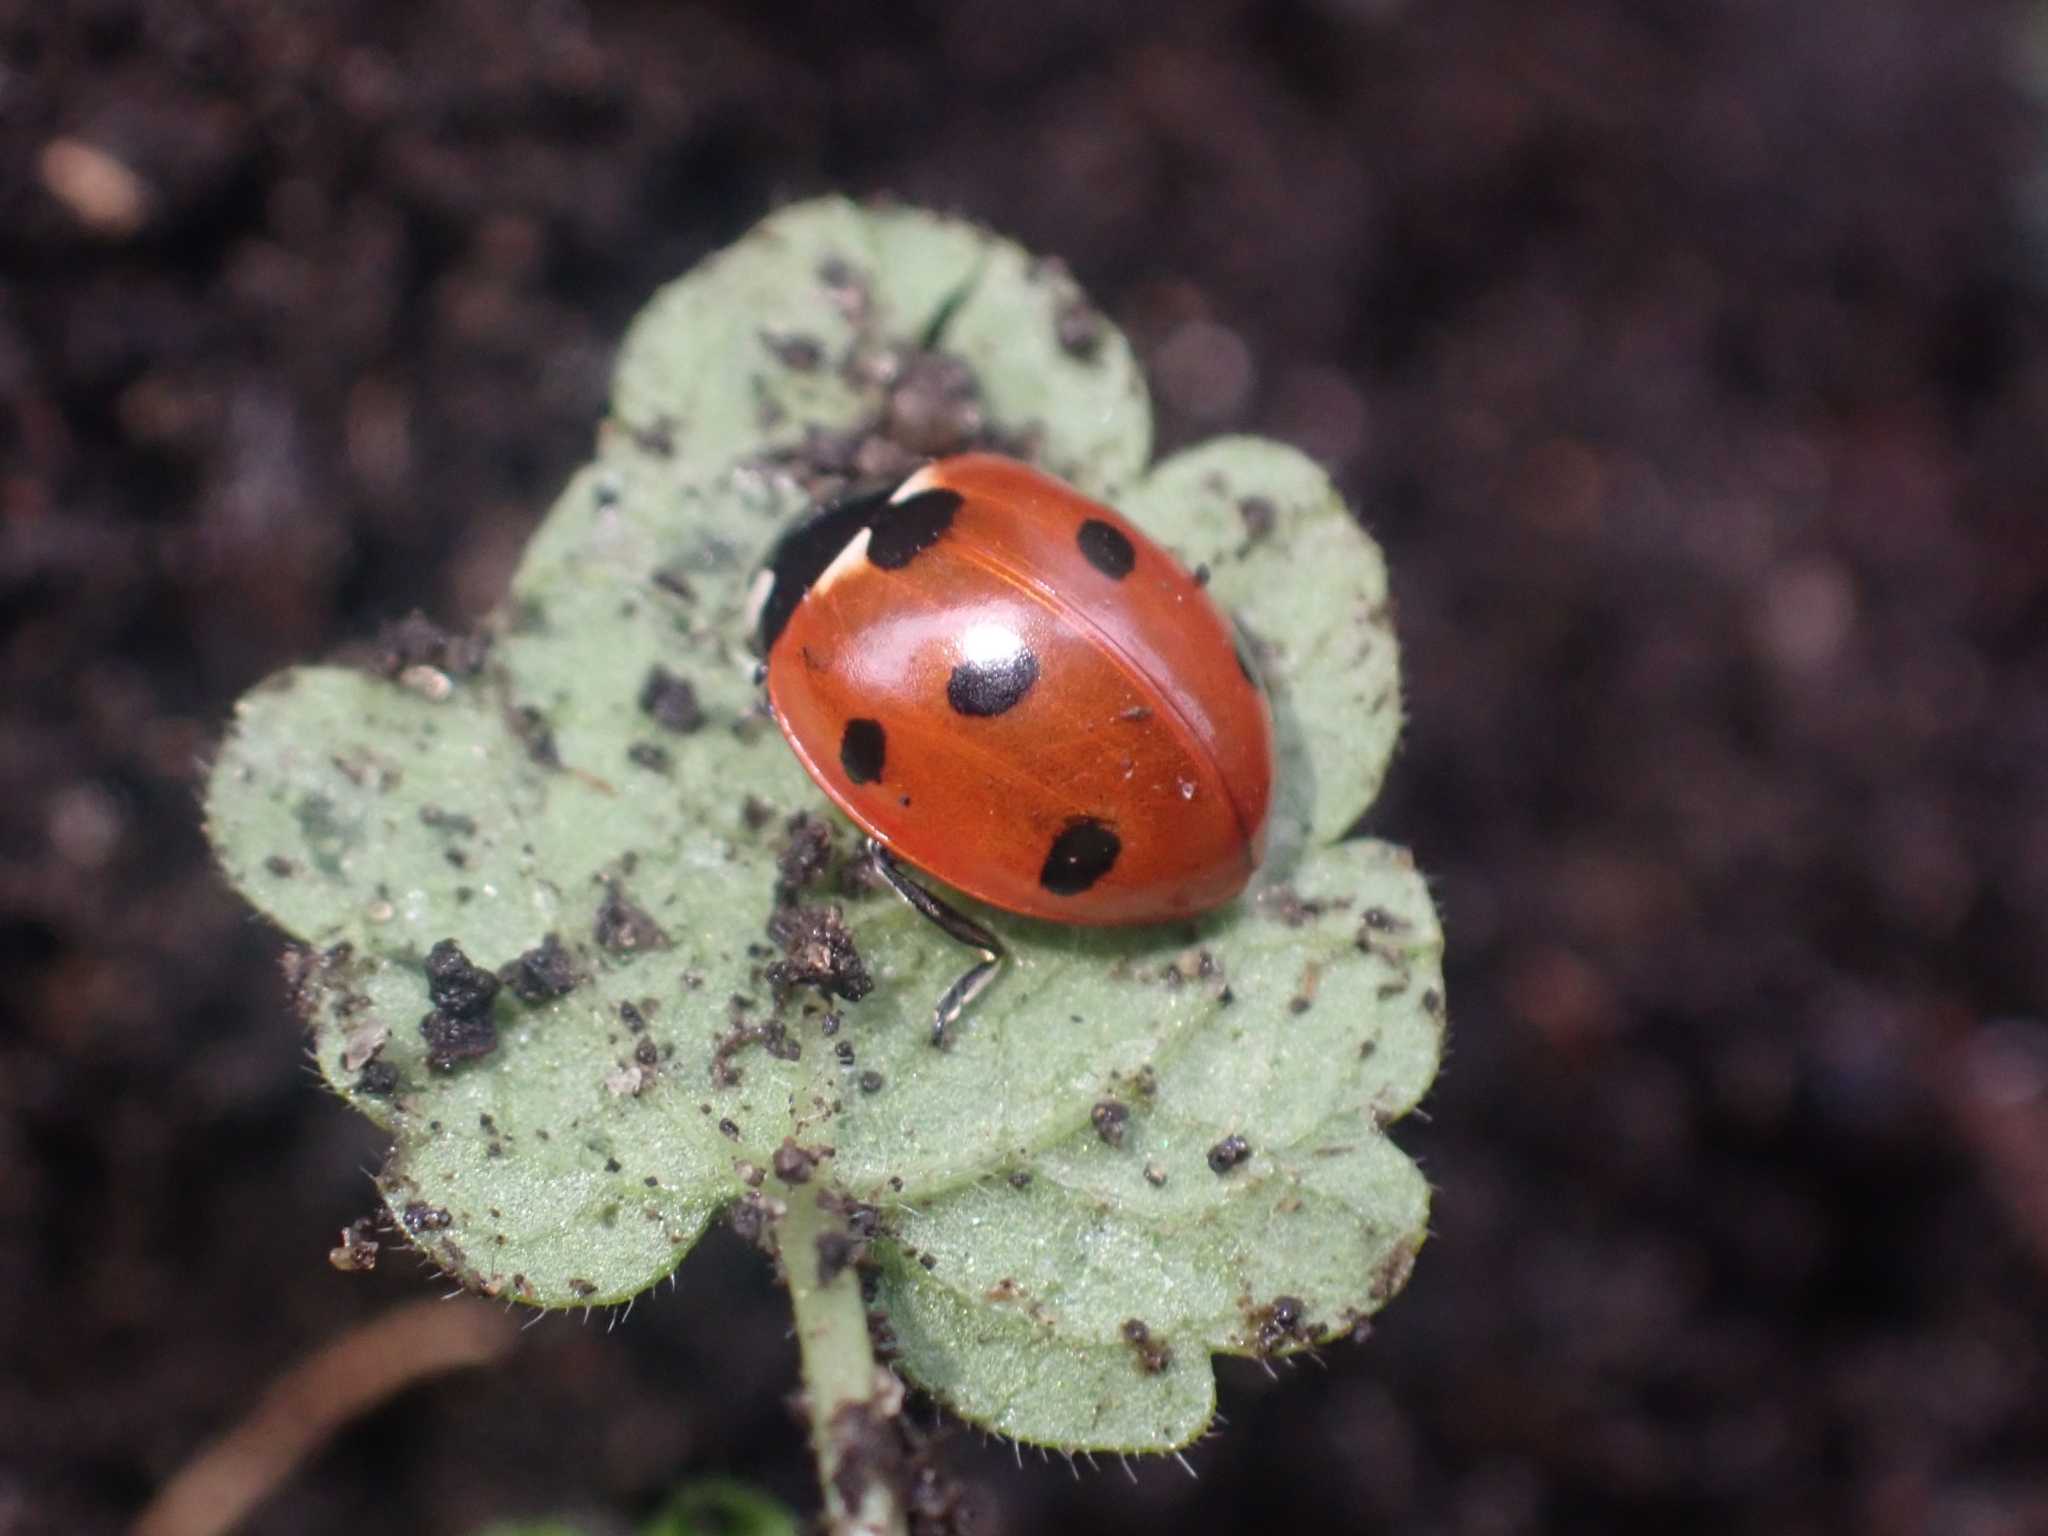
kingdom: Animalia
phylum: Arthropoda
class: Insecta
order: Coleoptera
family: Coccinellidae
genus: Coccinella
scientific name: Coccinella septempunctata
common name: Sevenspotted lady beetle
